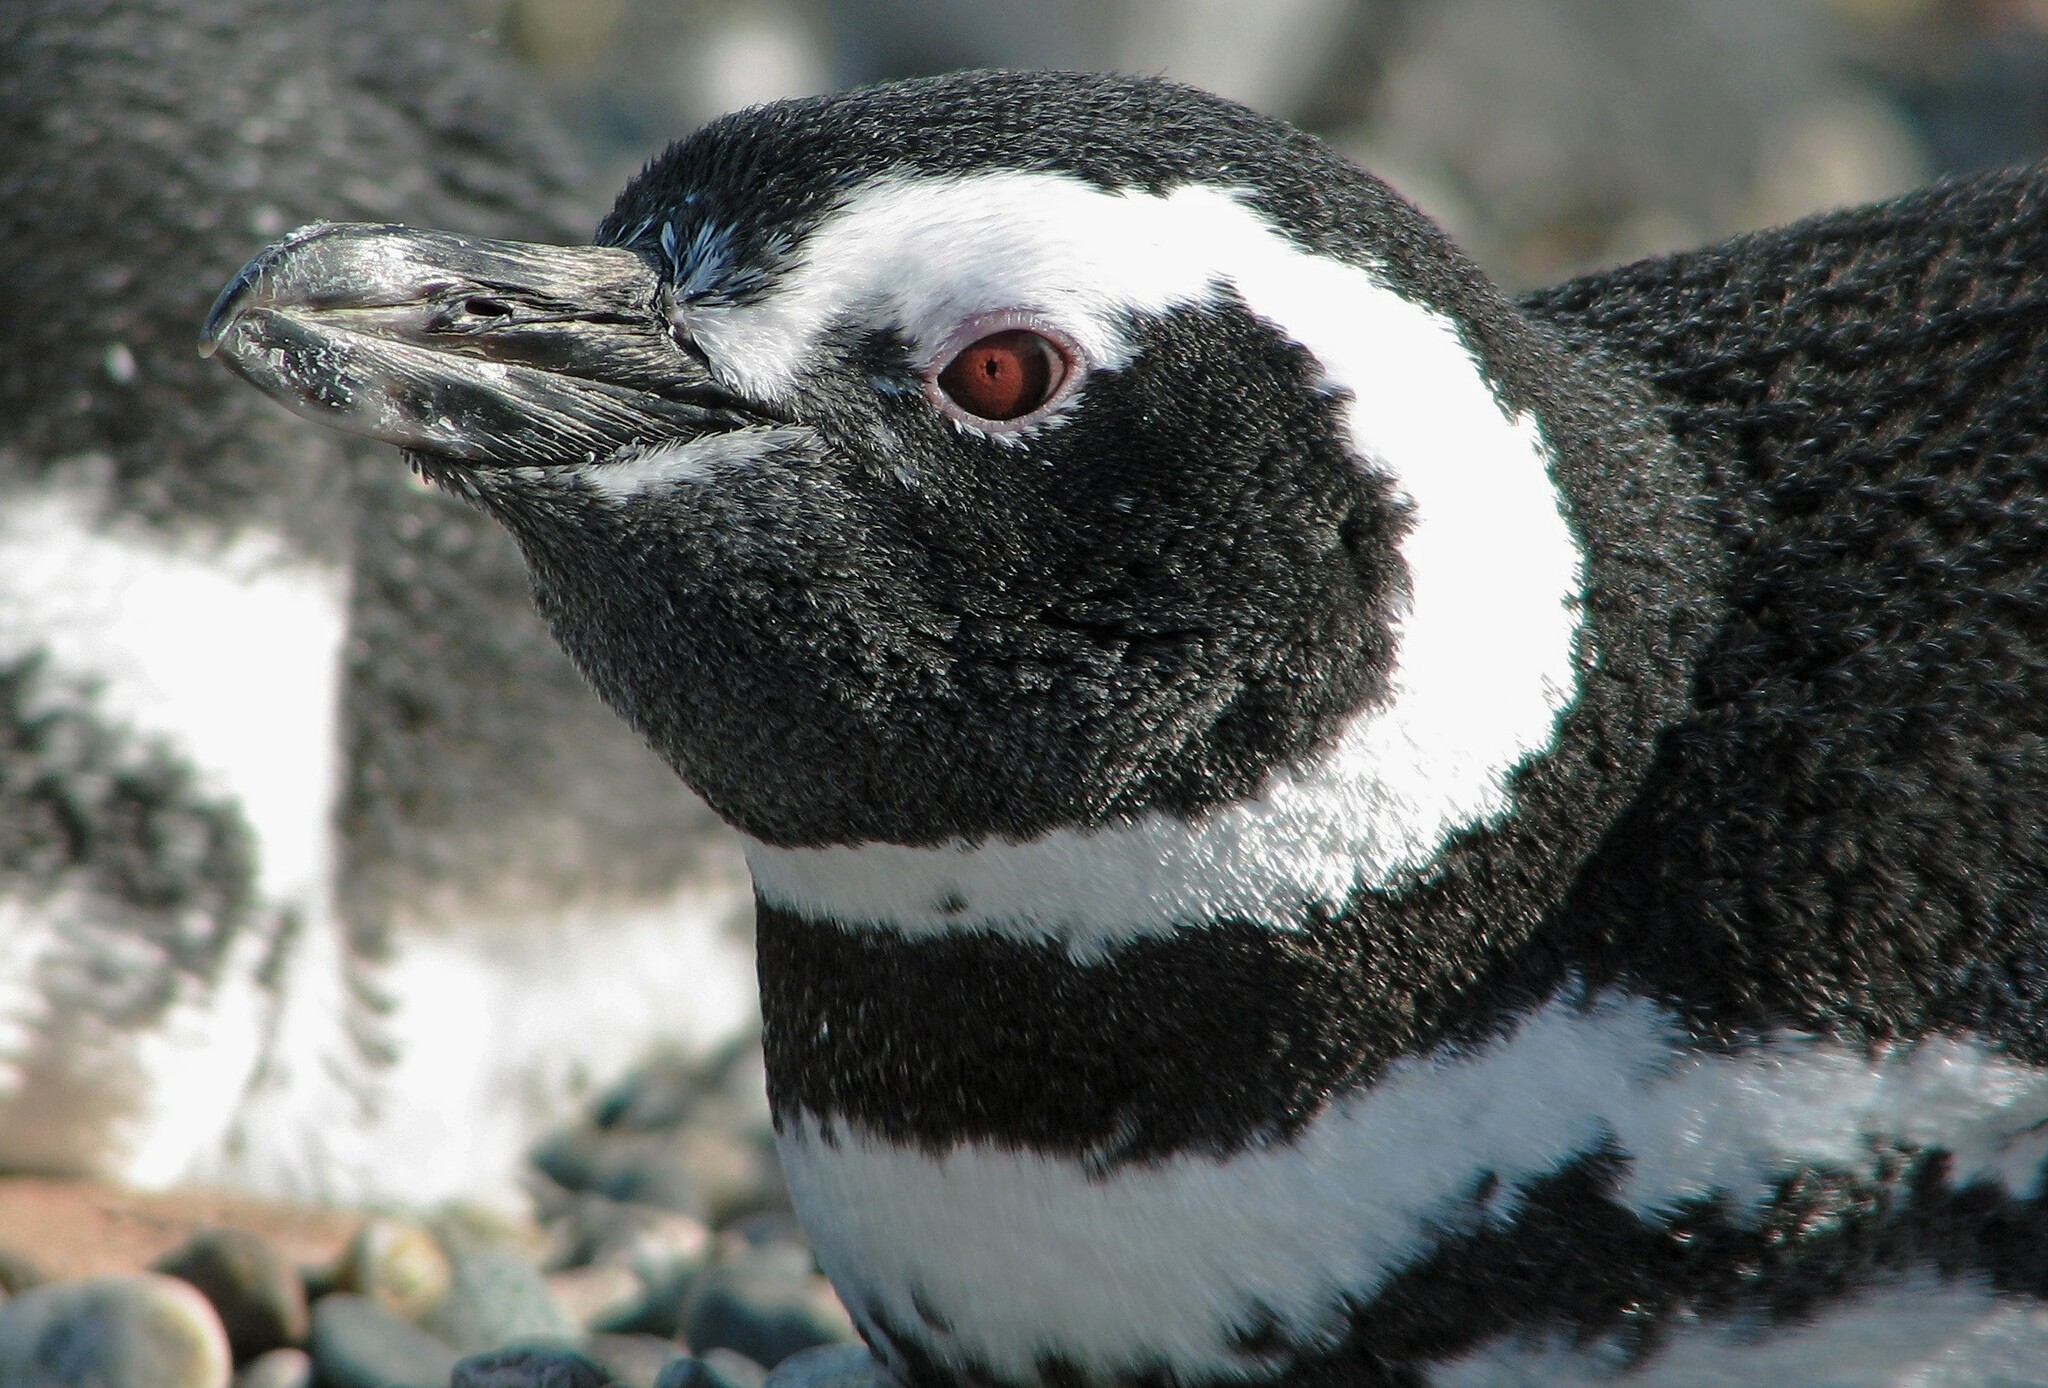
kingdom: Animalia
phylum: Chordata
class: Aves
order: Sphenisciformes
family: Spheniscidae
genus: Spheniscus
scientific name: Spheniscus magellanicus
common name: Magellanic penguin
